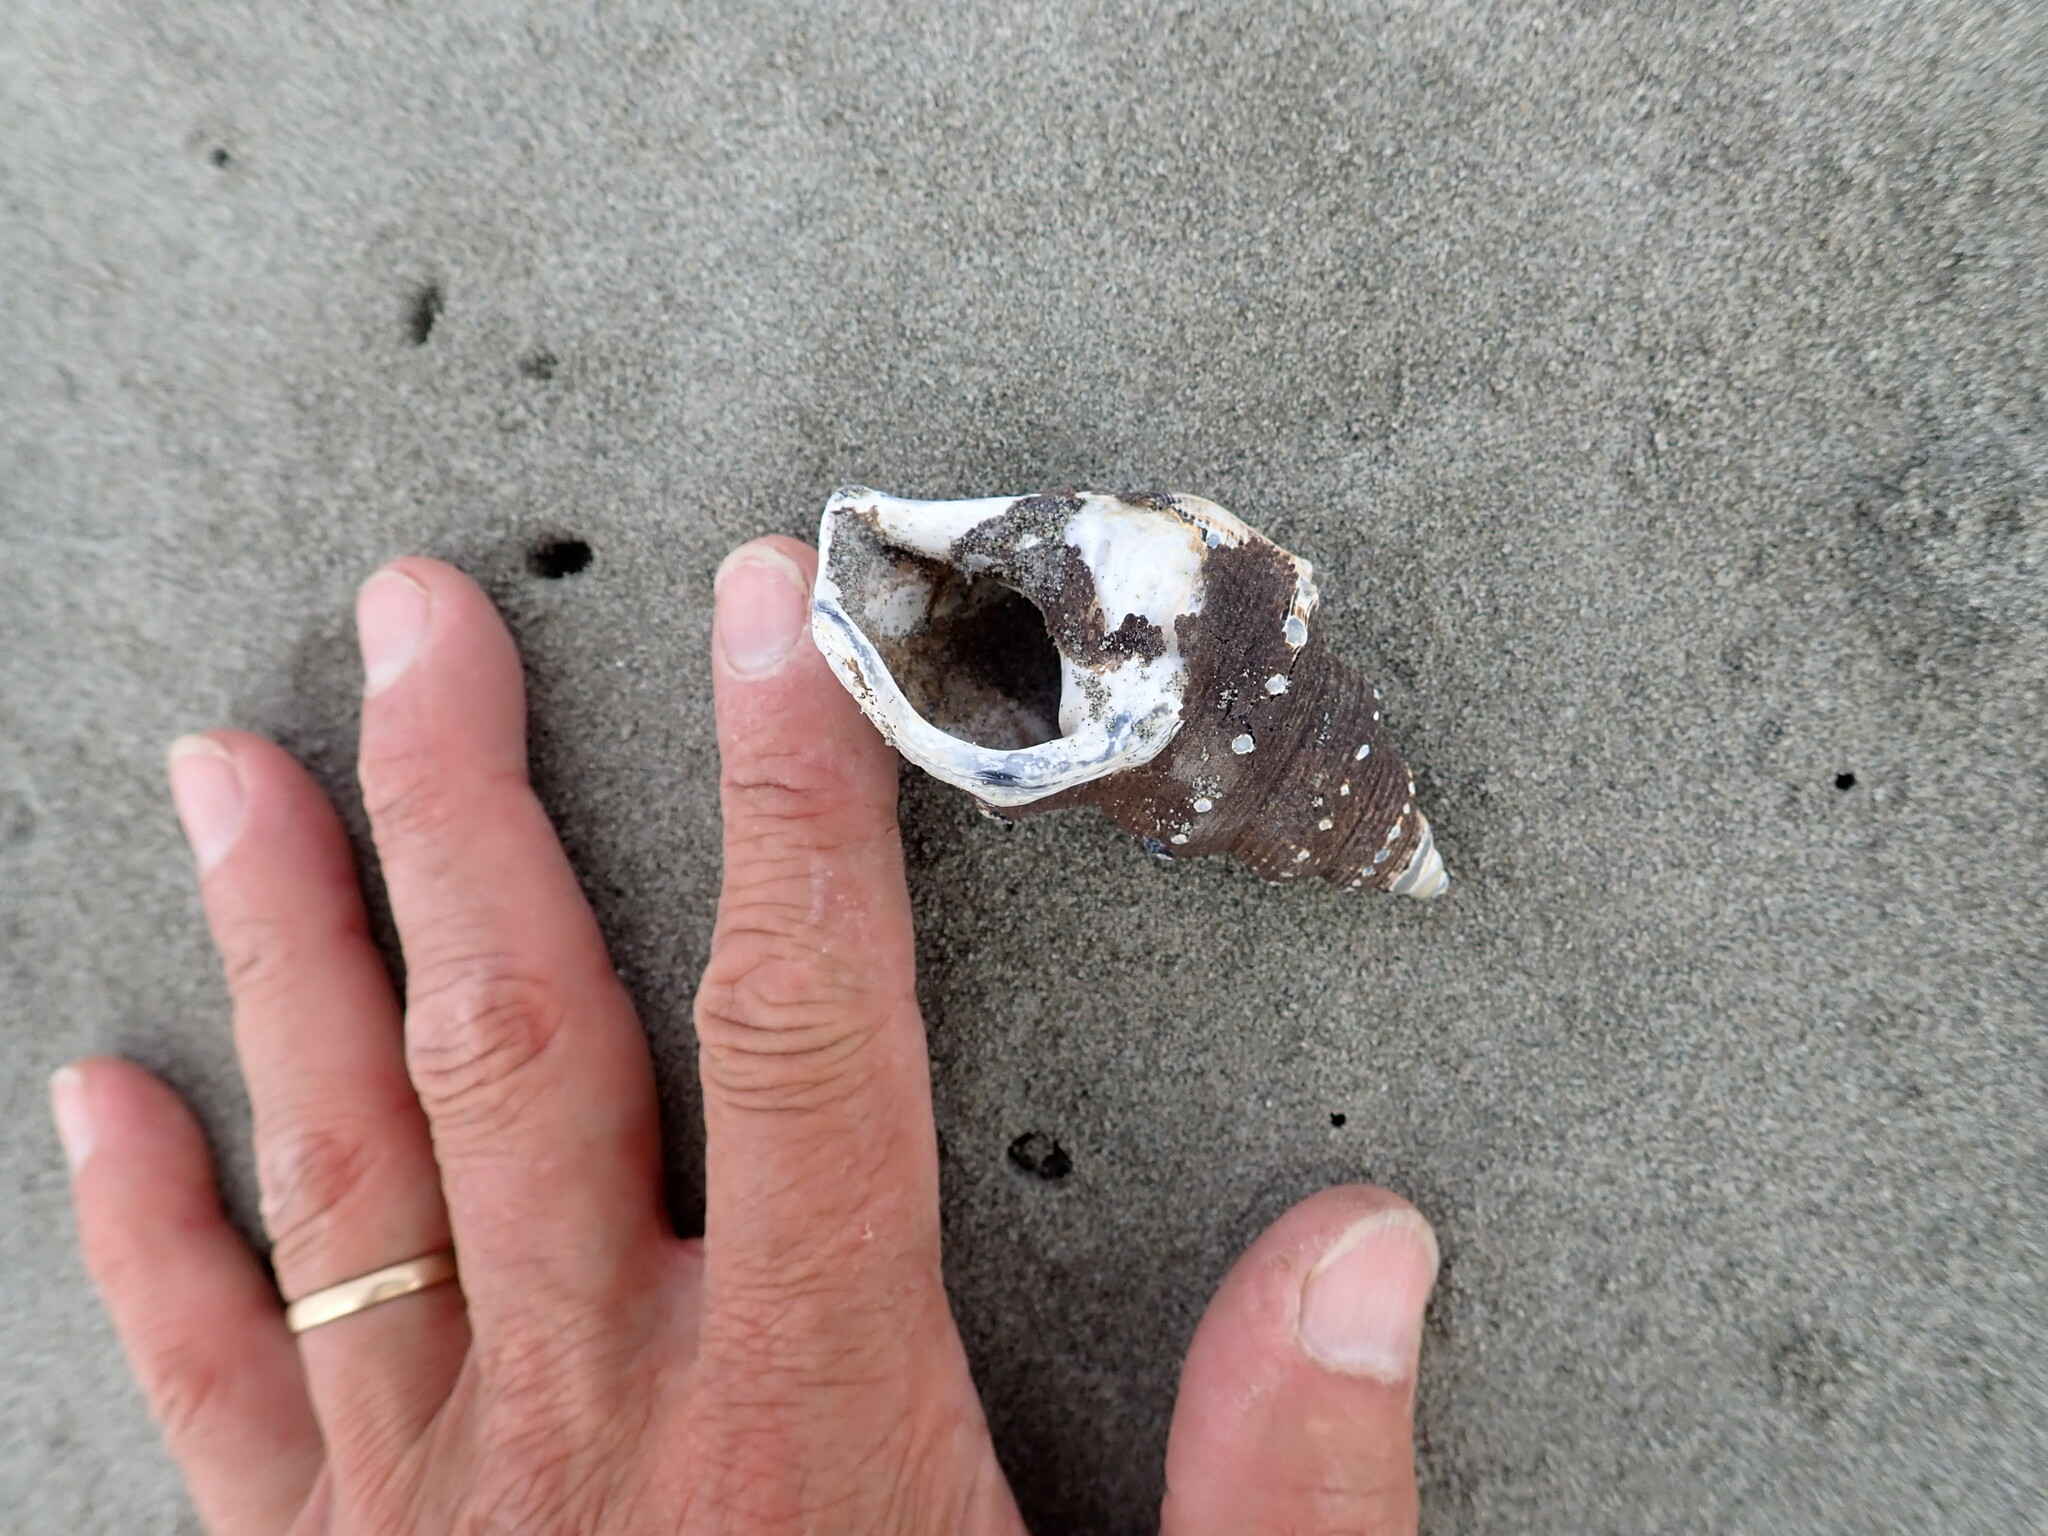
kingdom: Animalia
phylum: Mollusca
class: Gastropoda
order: Littorinimorpha
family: Struthiolariidae
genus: Struthiolaria
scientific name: Struthiolaria papulosa
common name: Large ostrich foot
